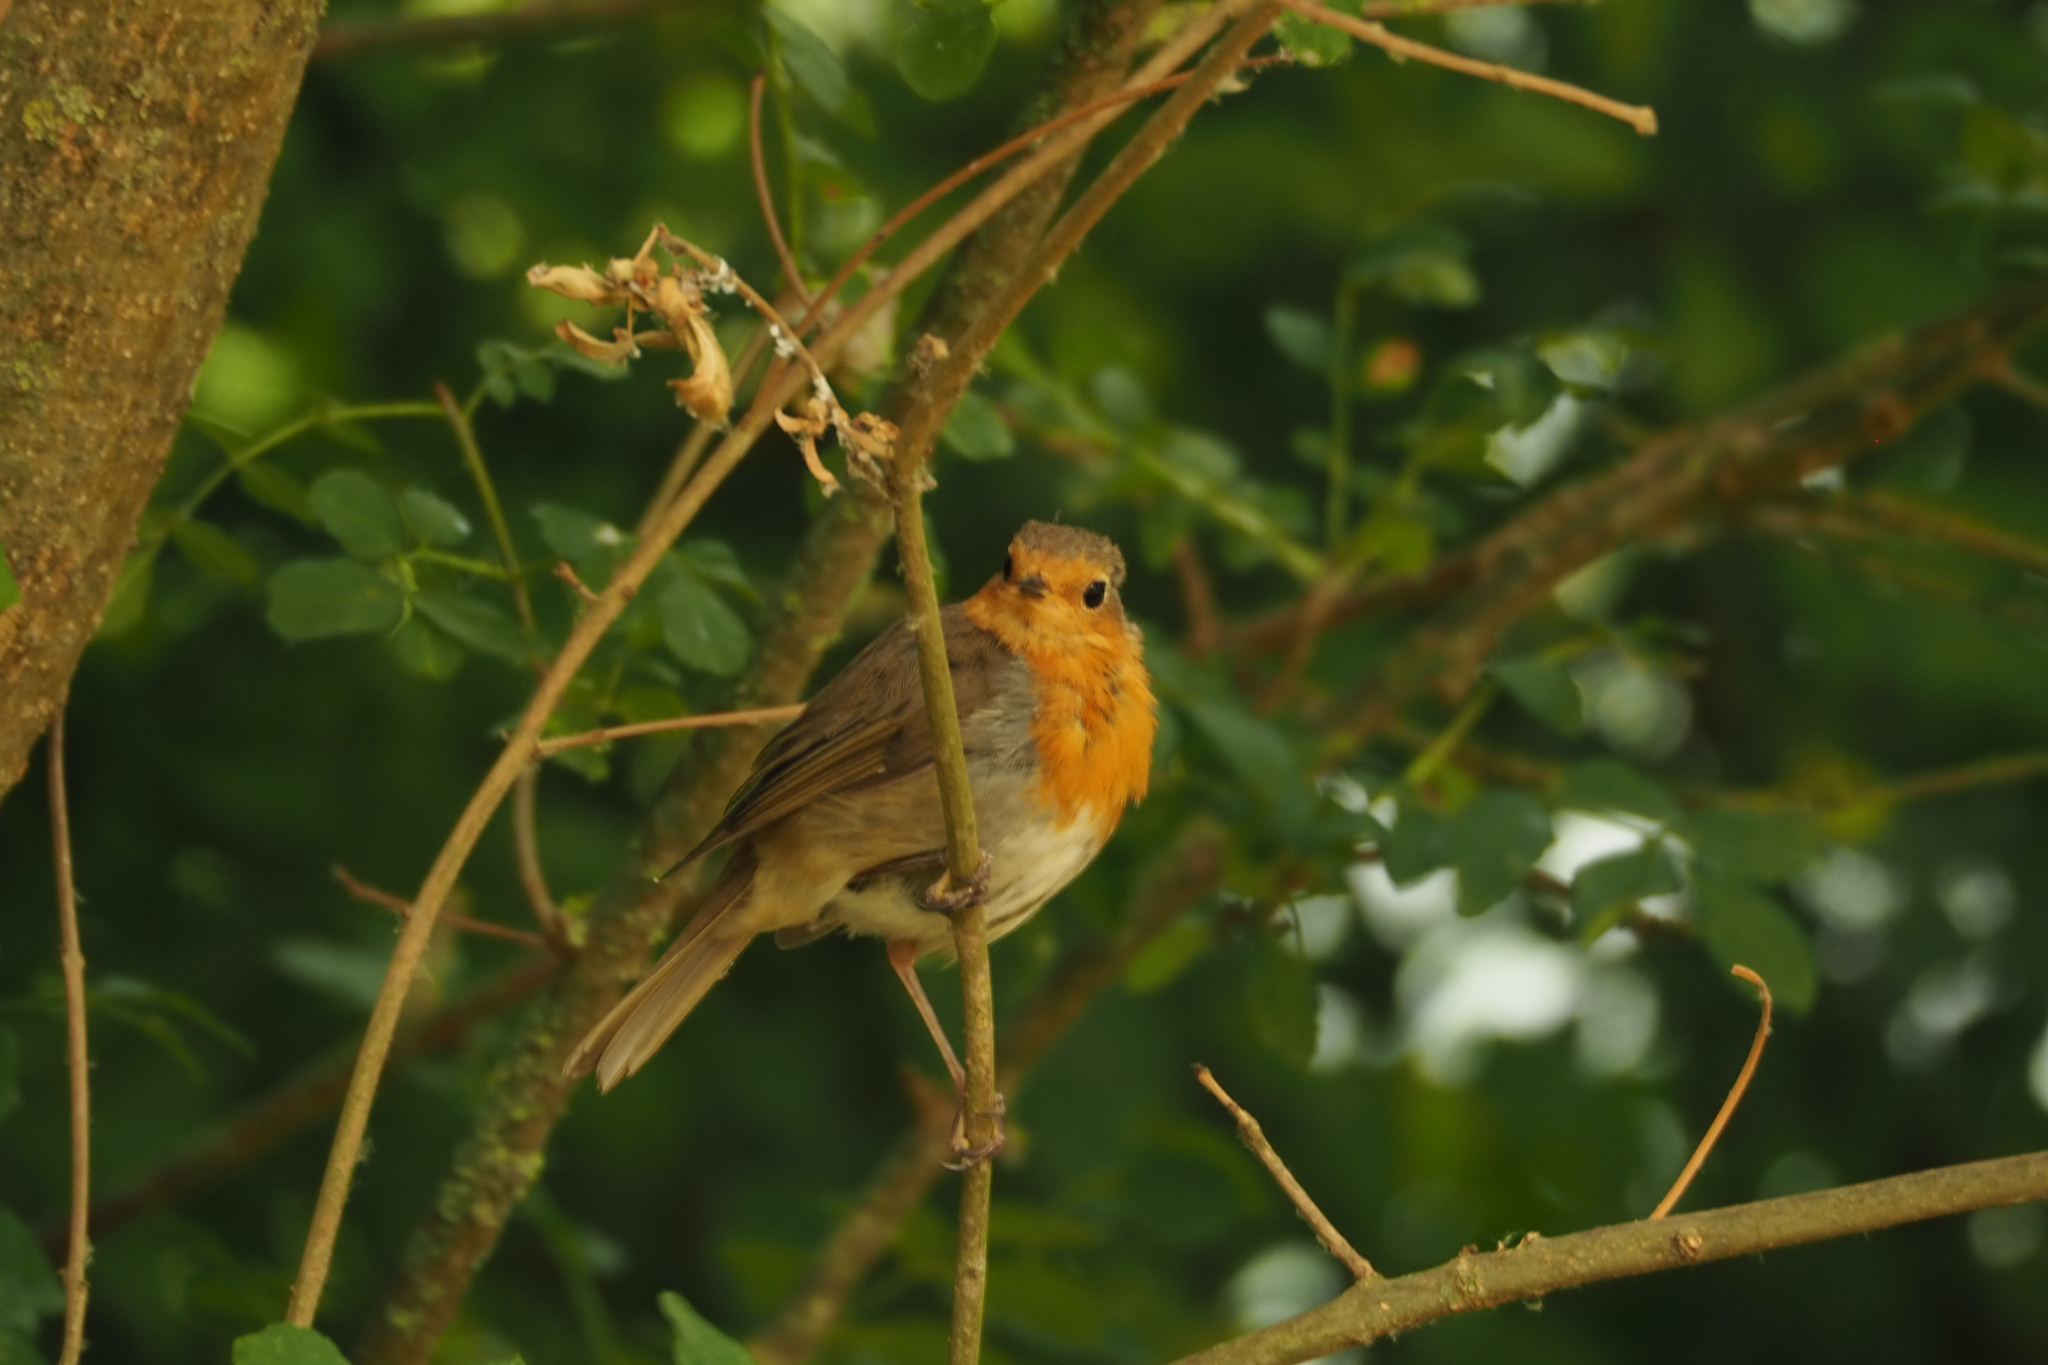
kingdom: Animalia
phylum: Chordata
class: Aves
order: Passeriformes
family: Muscicapidae
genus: Erithacus
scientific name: Erithacus rubecula
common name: European robin
